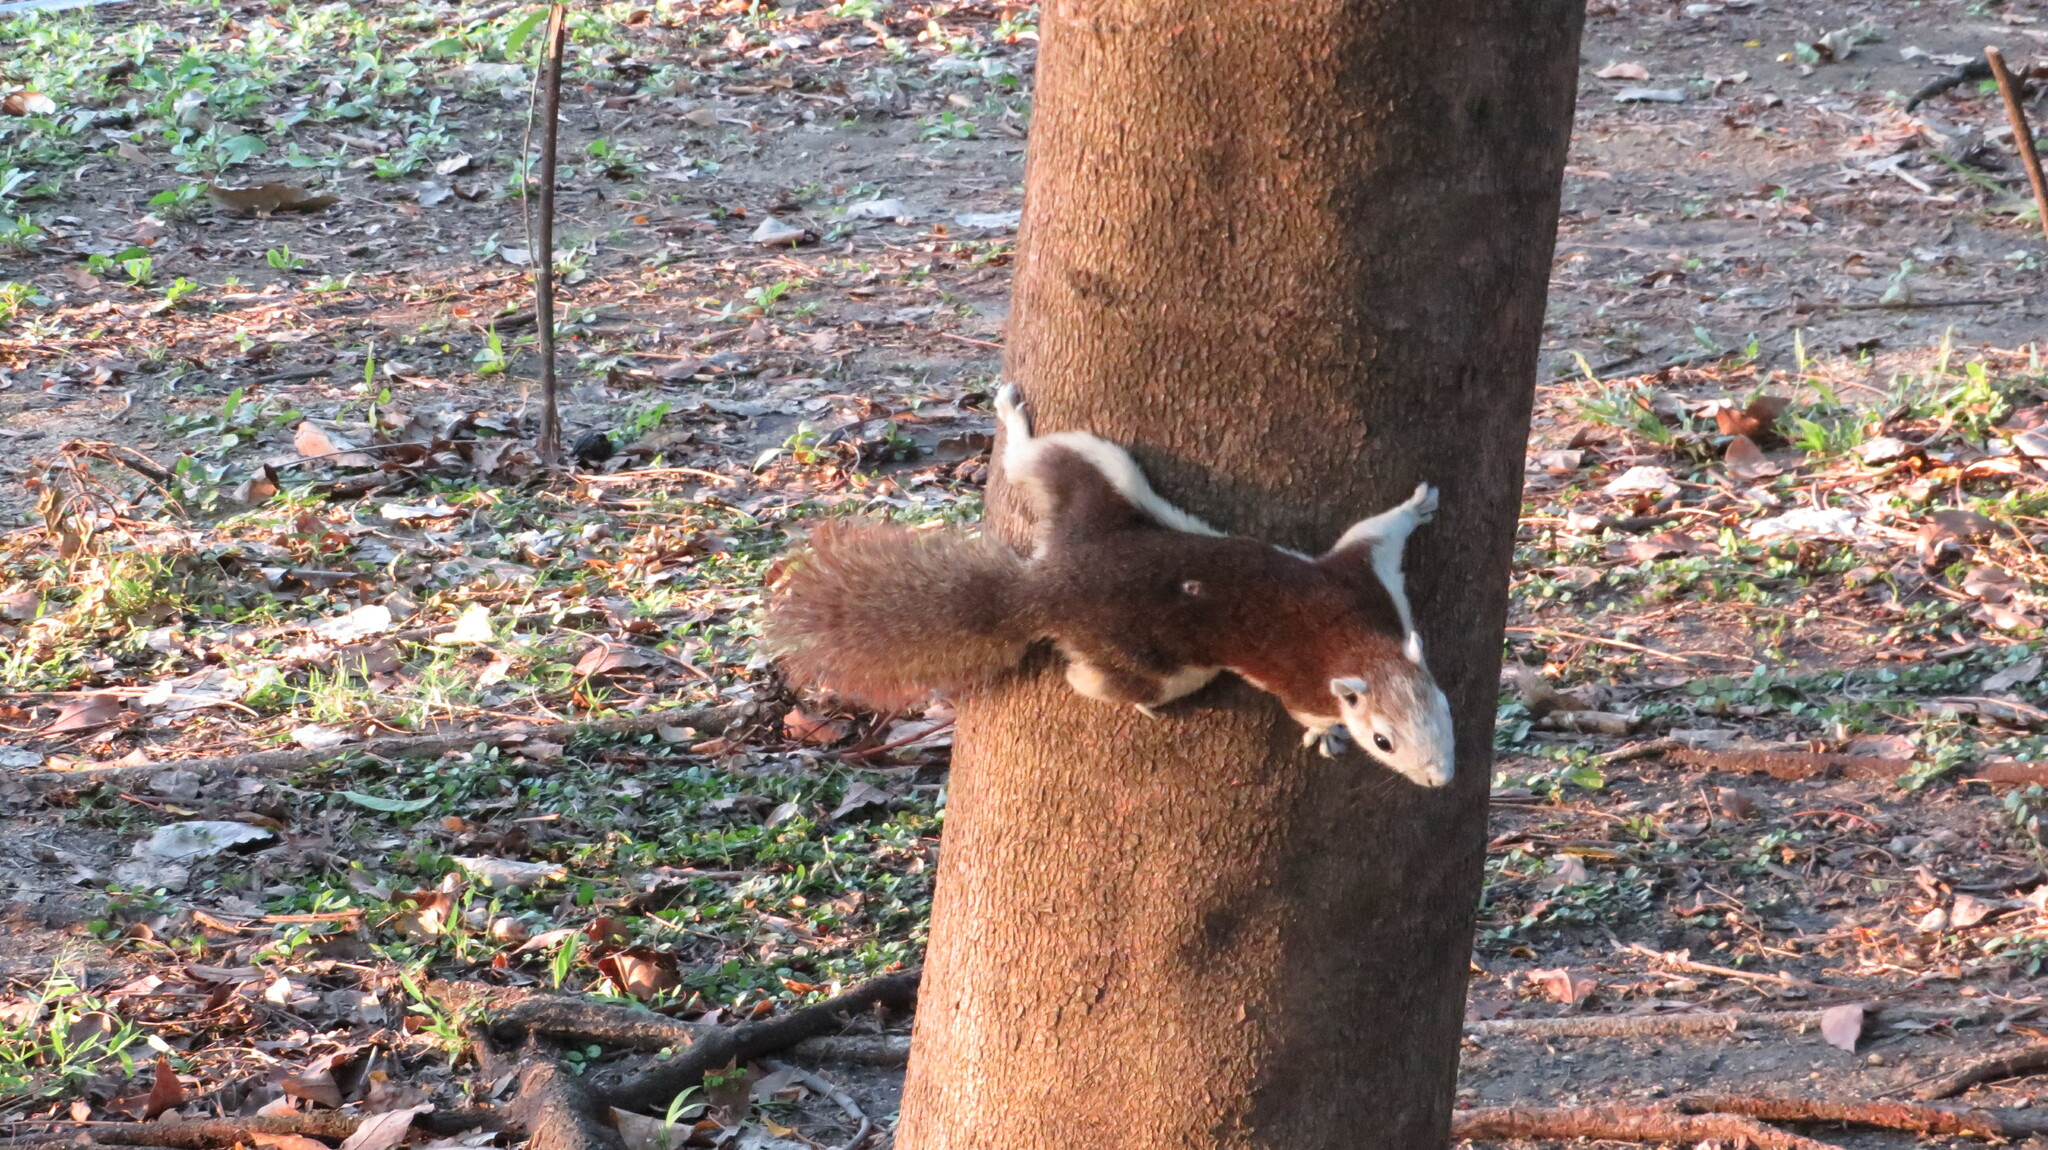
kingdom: Animalia
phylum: Chordata
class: Mammalia
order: Rodentia
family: Sciuridae
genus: Callosciurus
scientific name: Callosciurus finlaysonii
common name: Finlayson's squirrel
